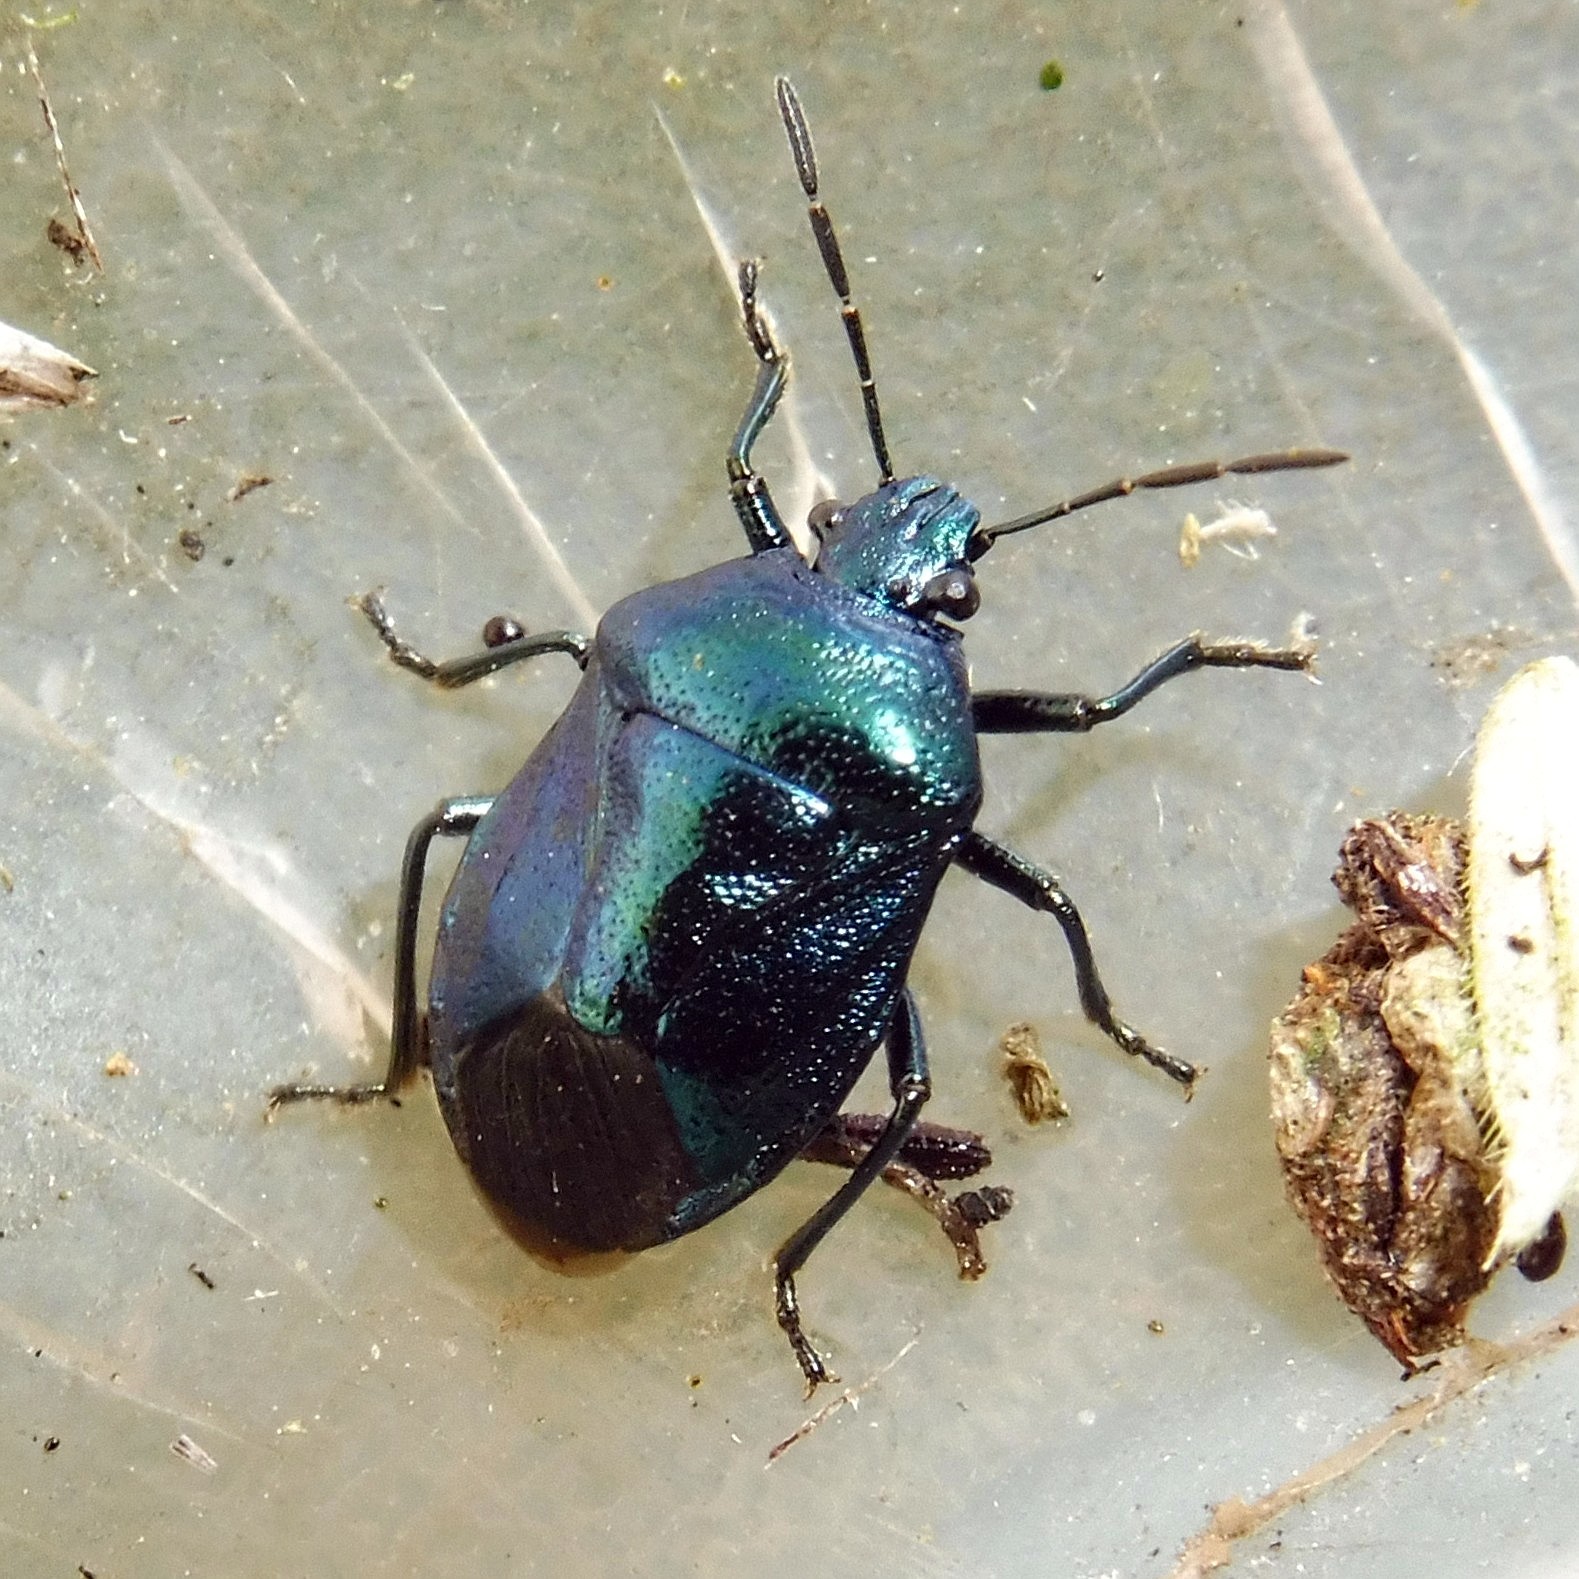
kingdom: Animalia
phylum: Arthropoda
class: Insecta
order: Hemiptera
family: Pentatomidae
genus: Zicrona
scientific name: Zicrona caerulea
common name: Blue shieldbug
